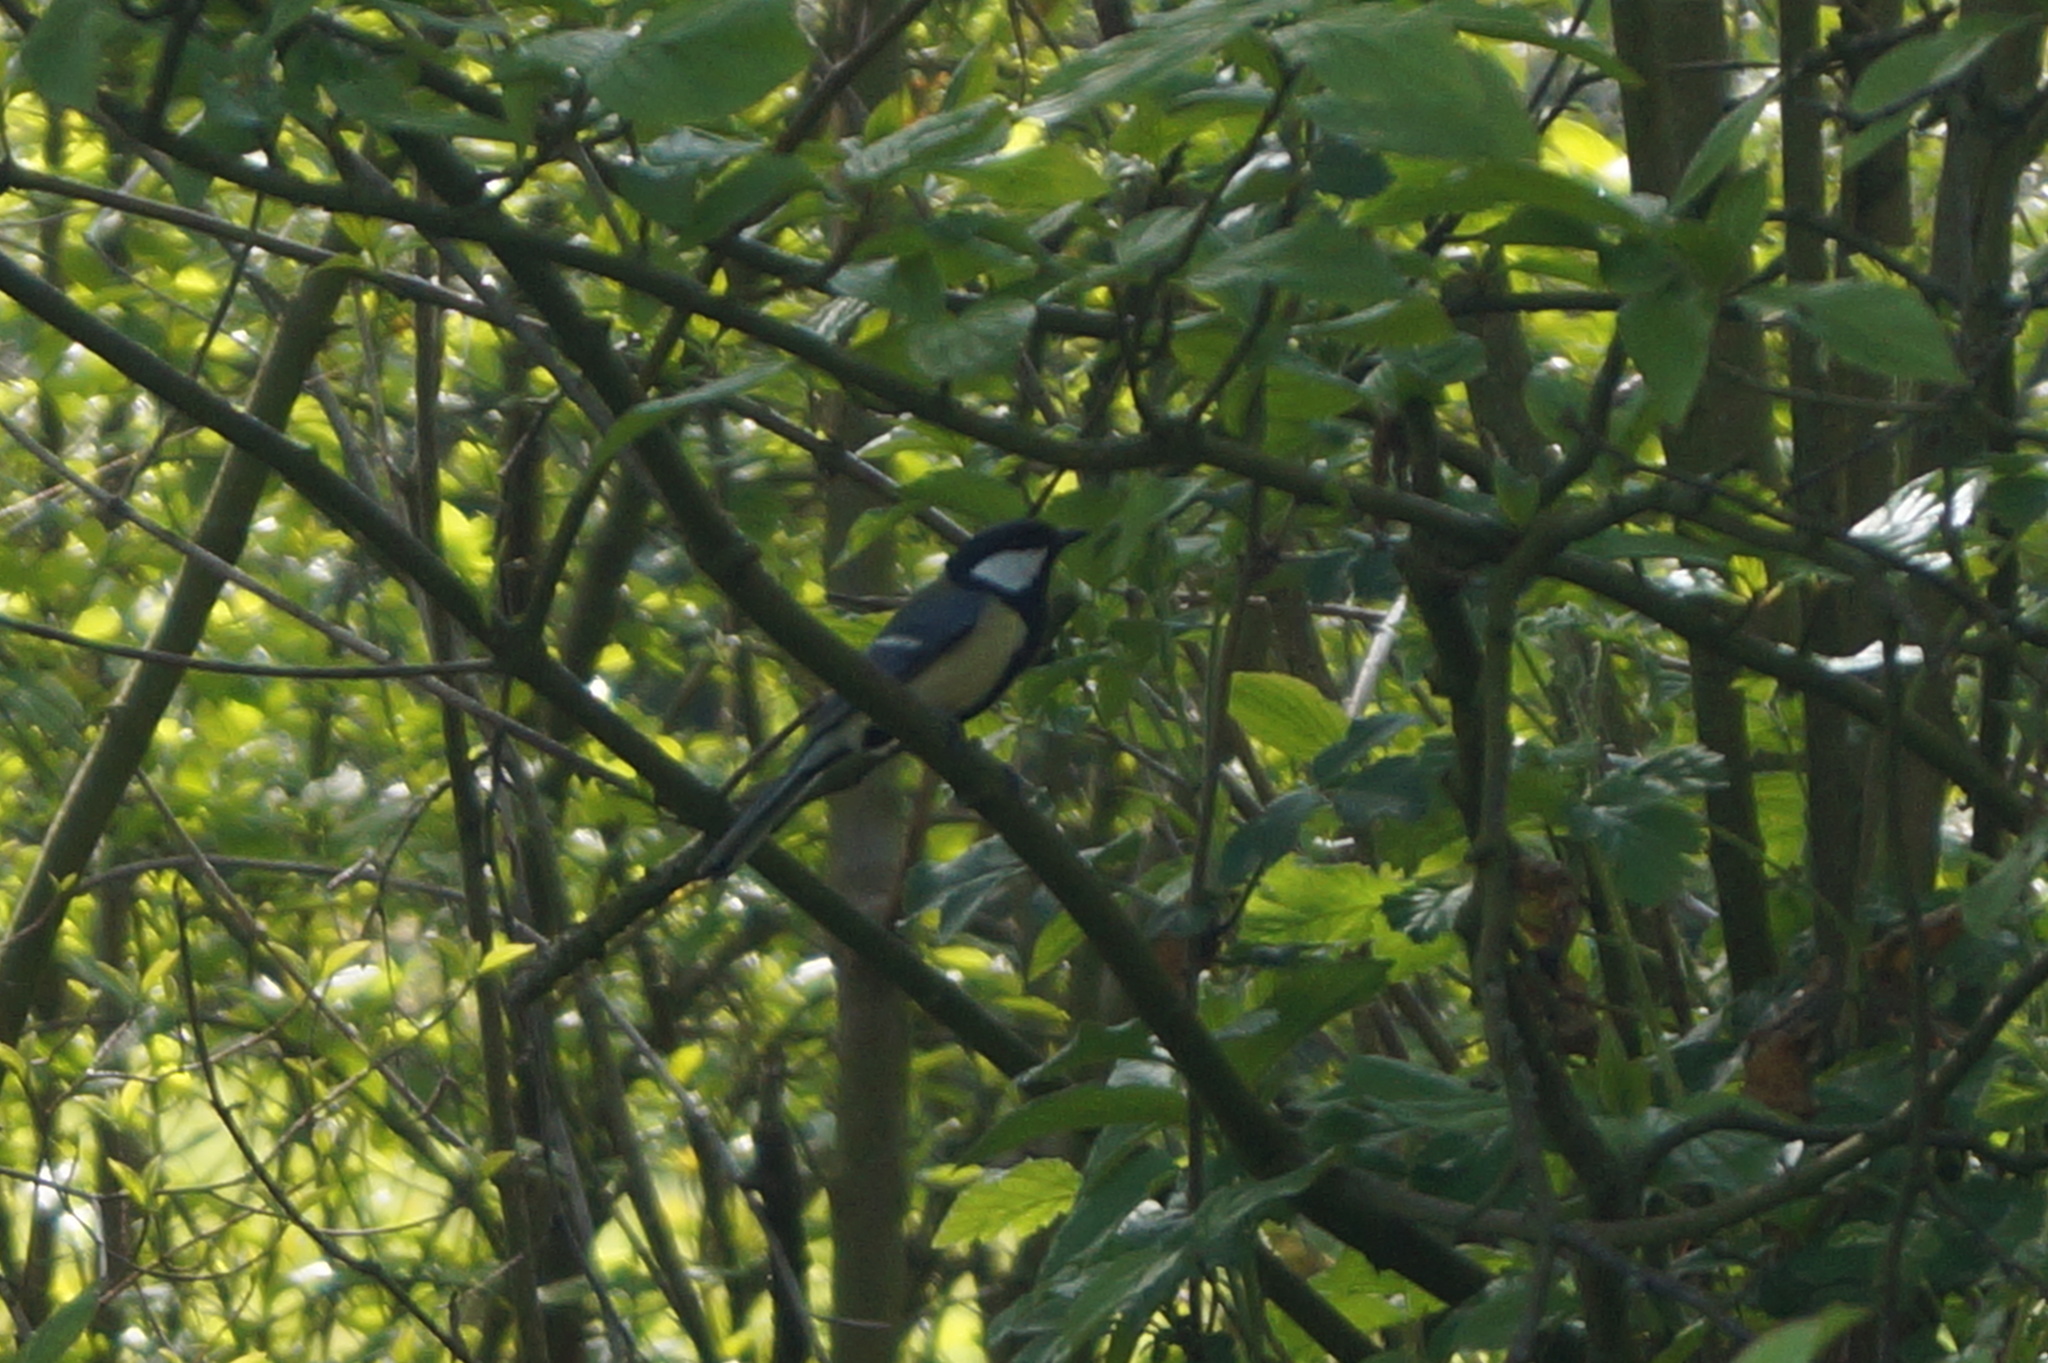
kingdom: Animalia
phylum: Chordata
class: Aves
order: Passeriformes
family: Paridae
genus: Parus
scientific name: Parus major
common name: Great tit
